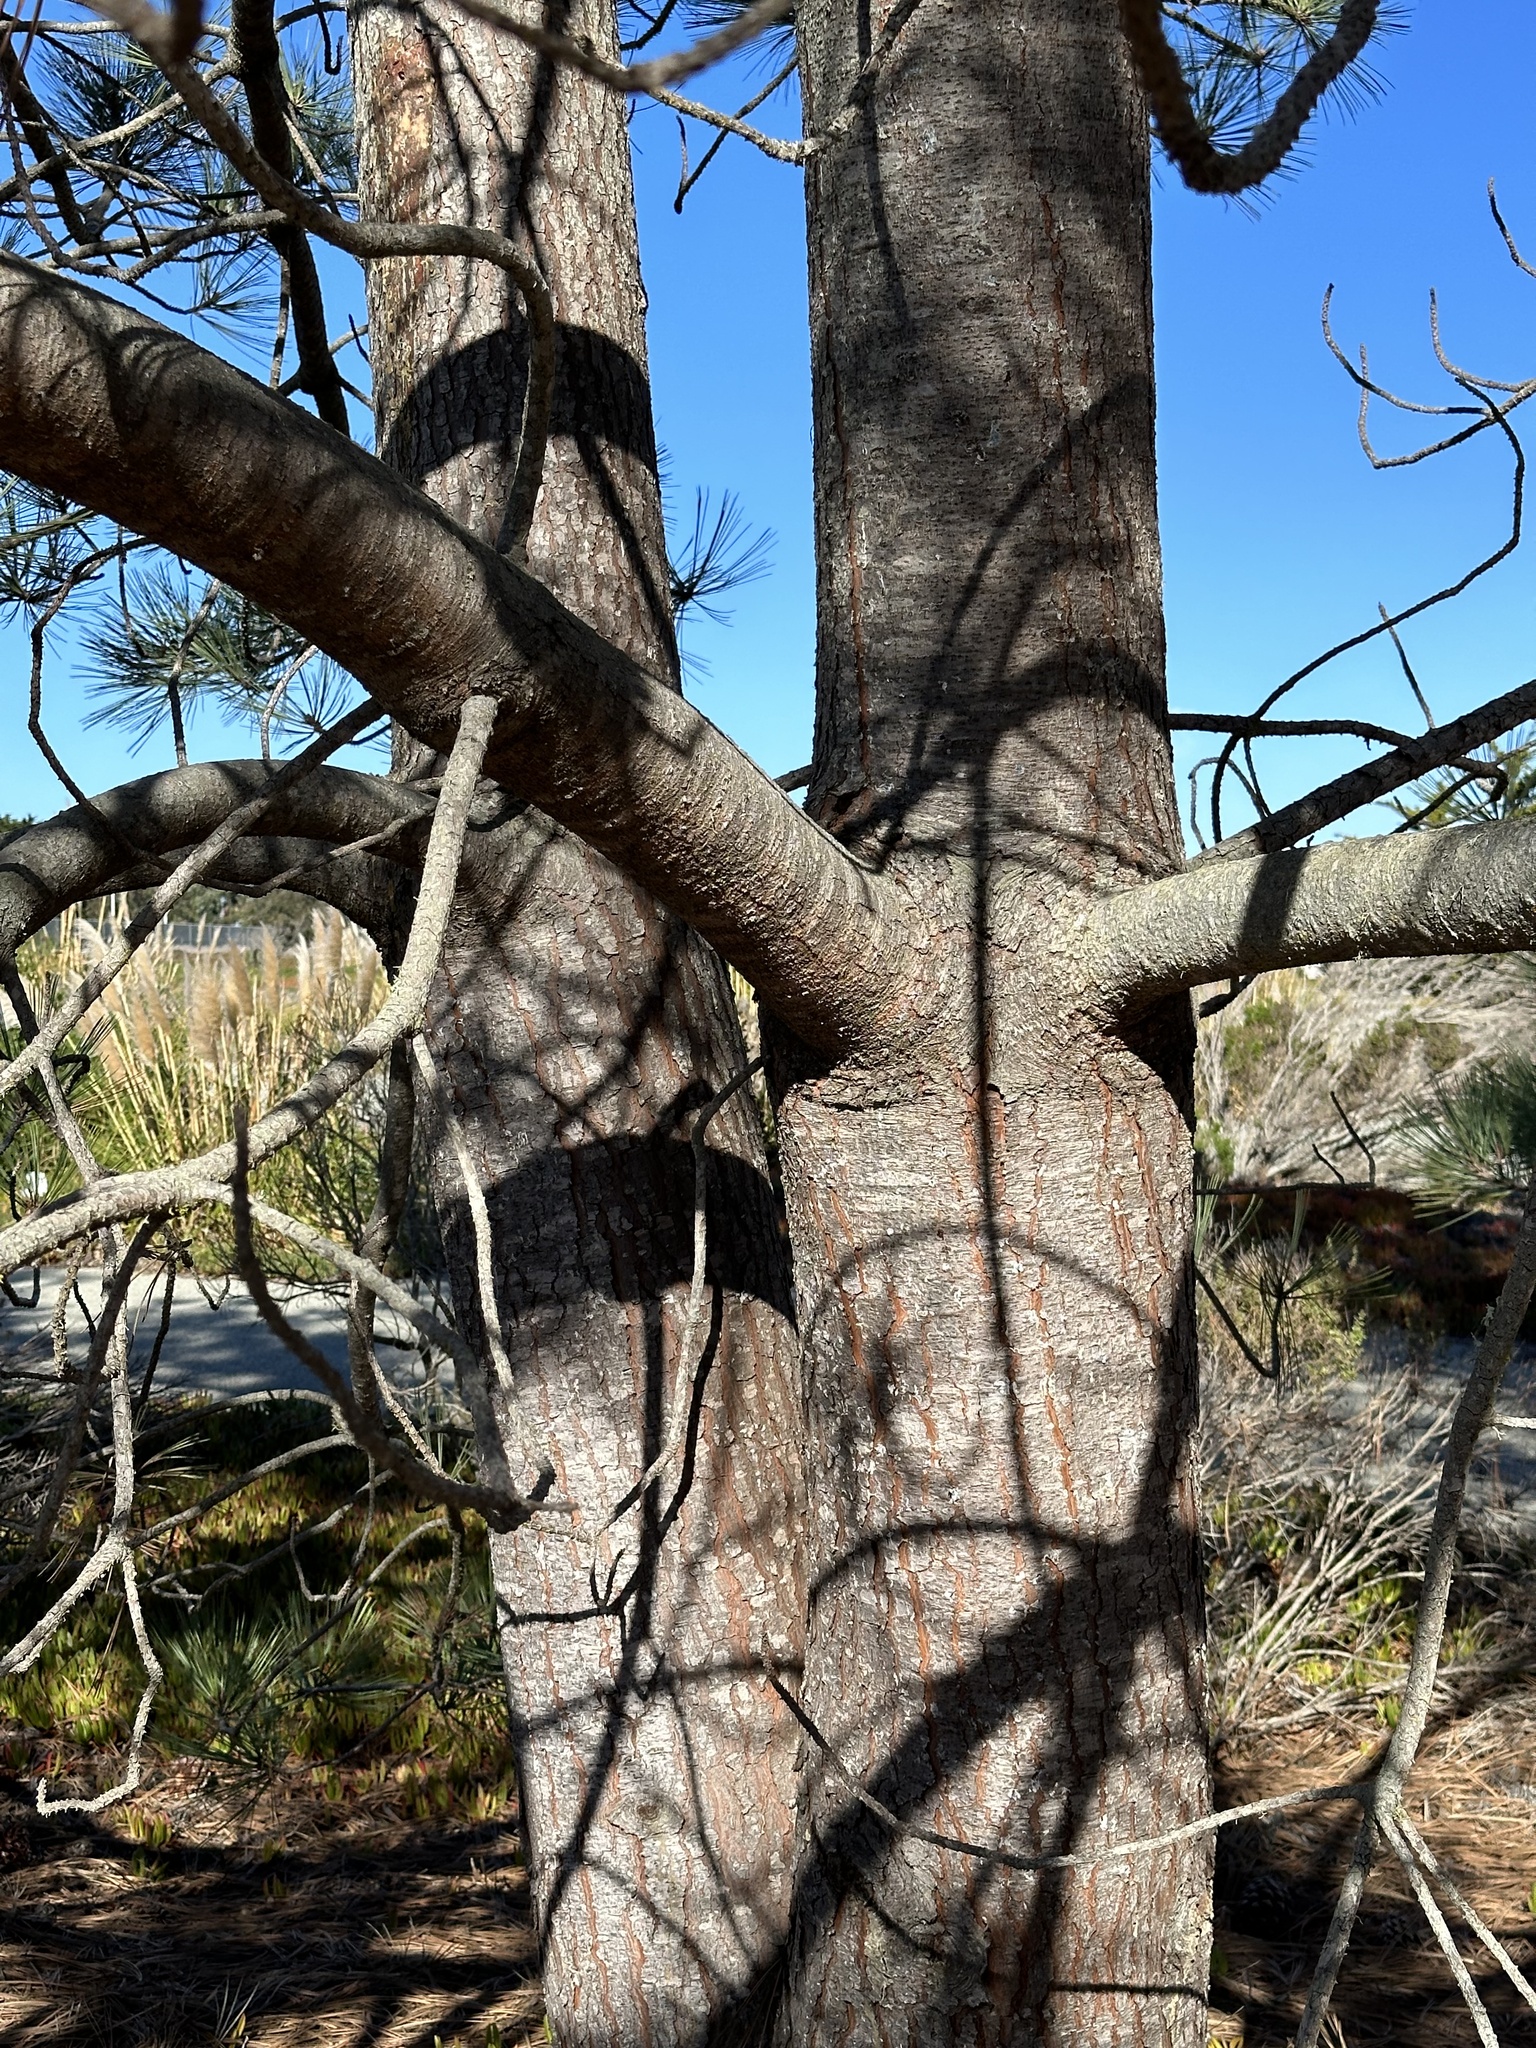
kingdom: Plantae
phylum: Tracheophyta
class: Pinopsida
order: Pinales
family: Pinaceae
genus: Pinus
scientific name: Pinus torreyana
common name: Torrey pine
